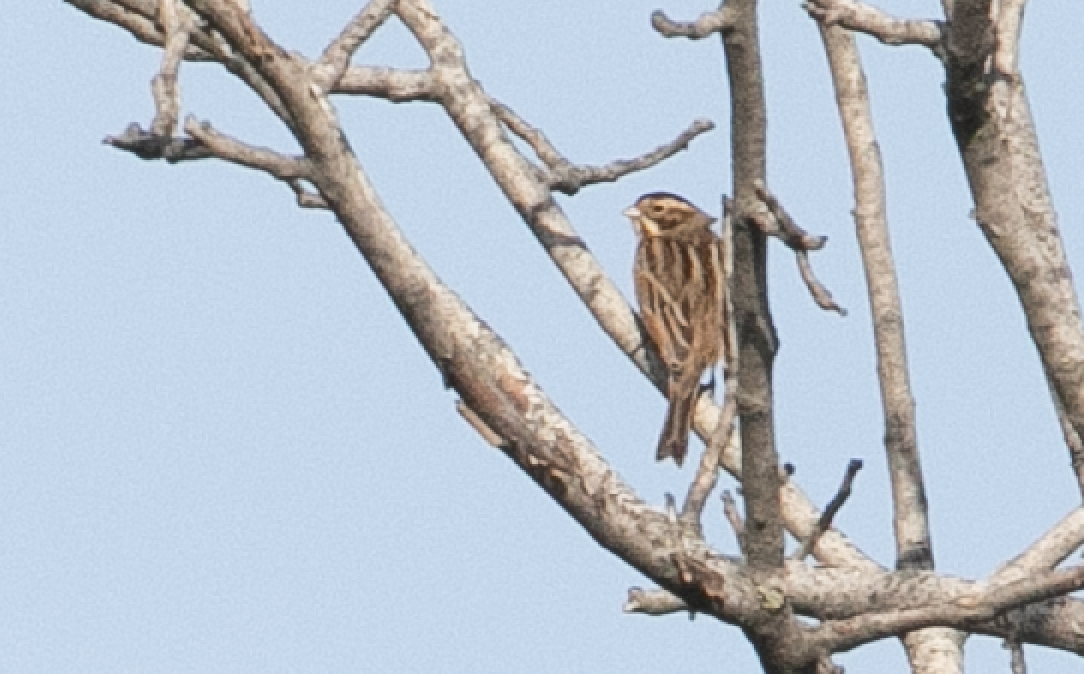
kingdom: Animalia
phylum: Chordata
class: Aves
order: Passeriformes
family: Emberizidae
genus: Emberiza
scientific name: Emberiza schoeniclus
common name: Reed bunting
